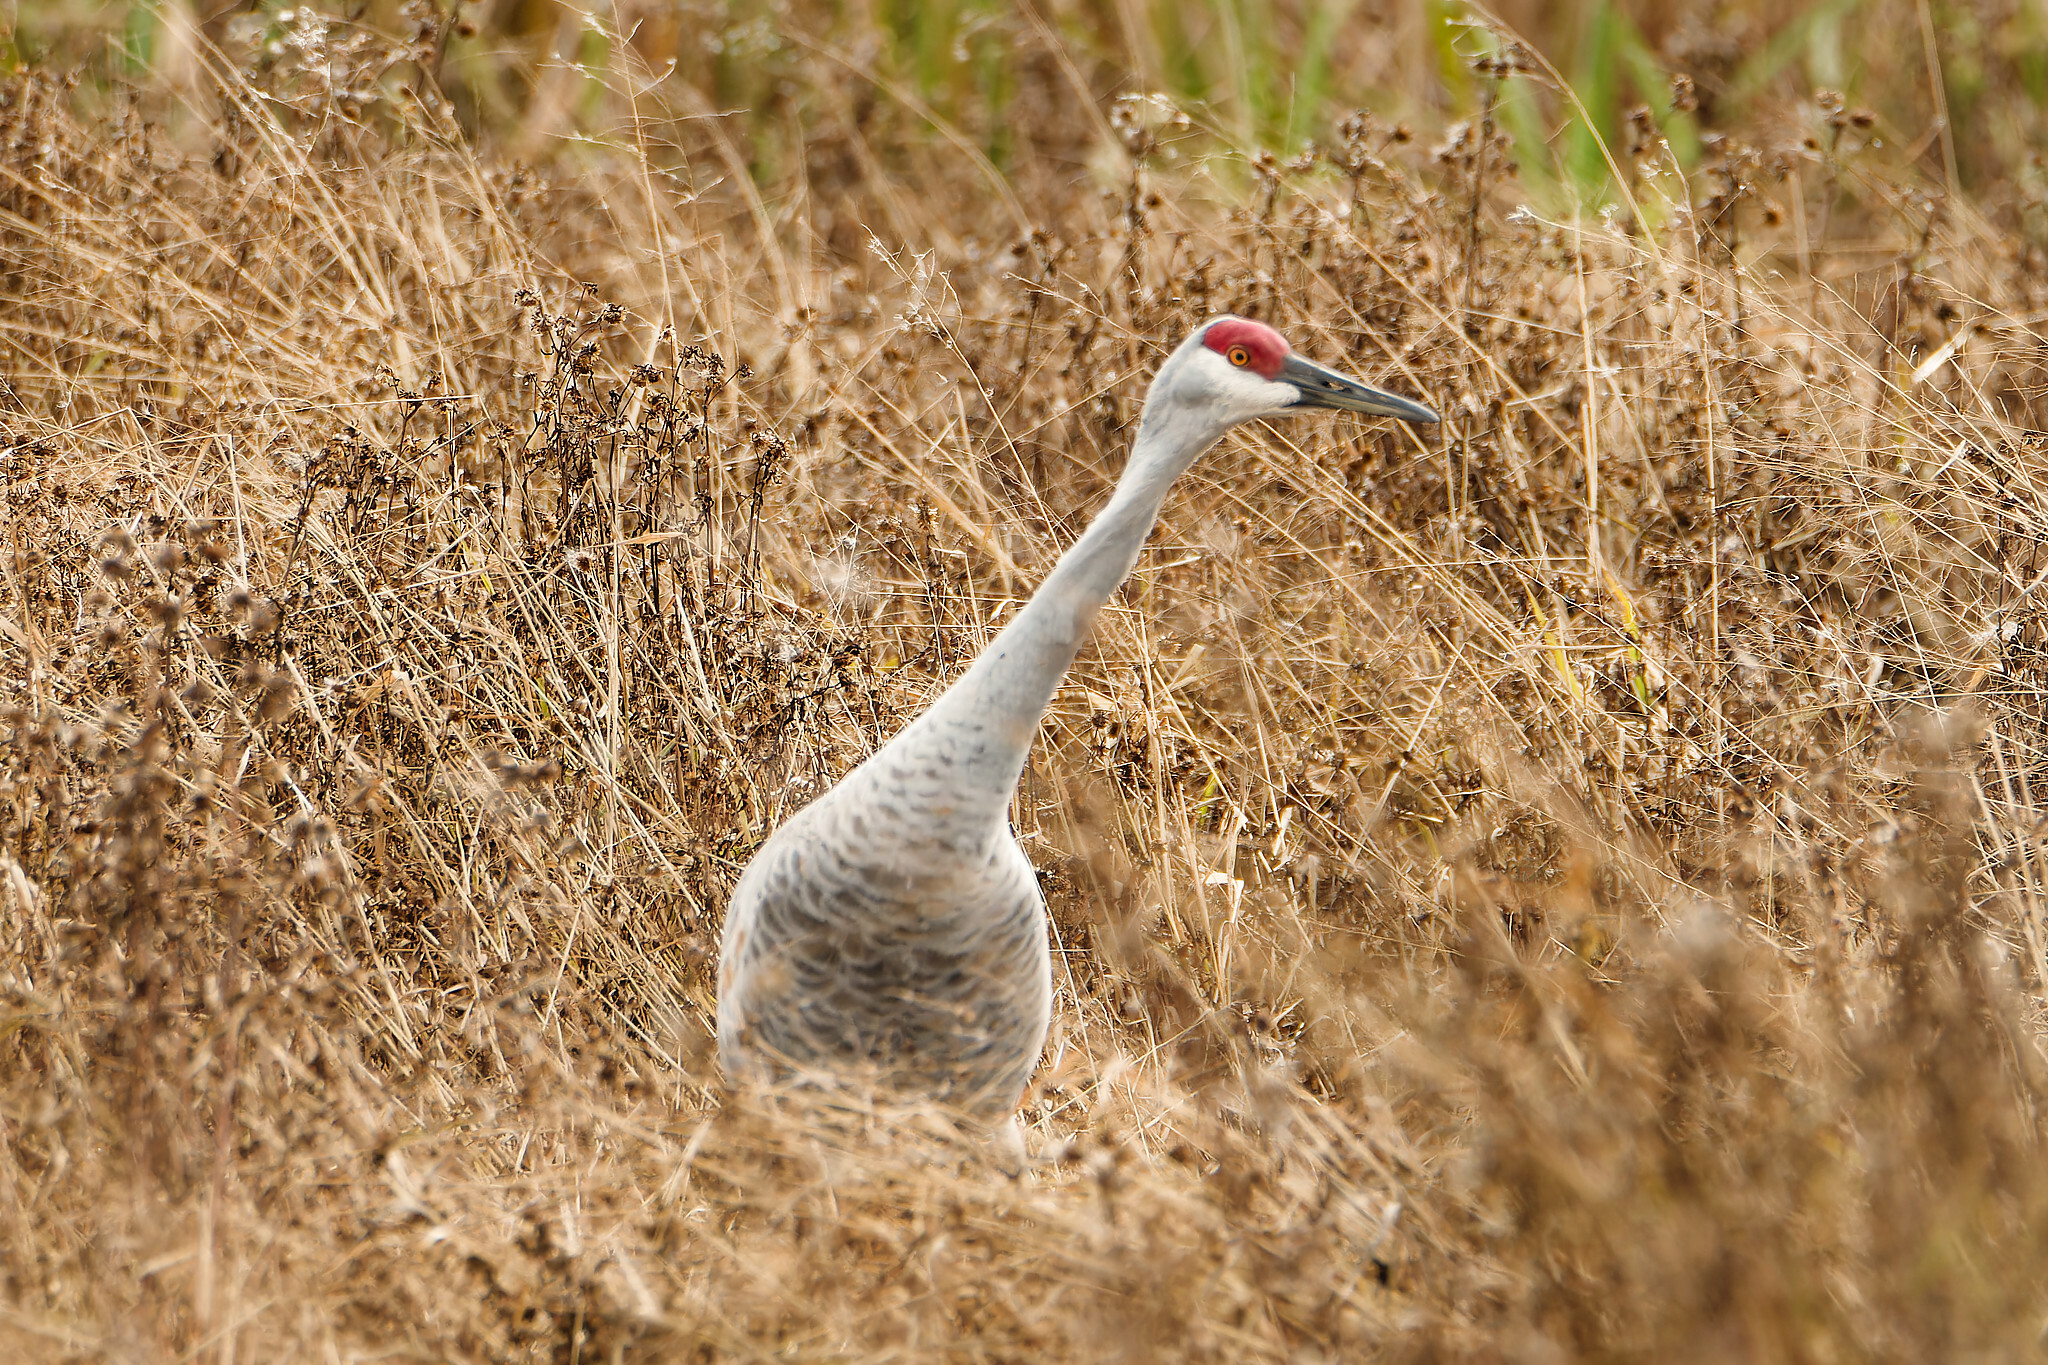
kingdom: Animalia
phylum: Chordata
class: Aves
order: Gruiformes
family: Gruidae
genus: Grus
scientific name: Grus canadensis
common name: Sandhill crane
